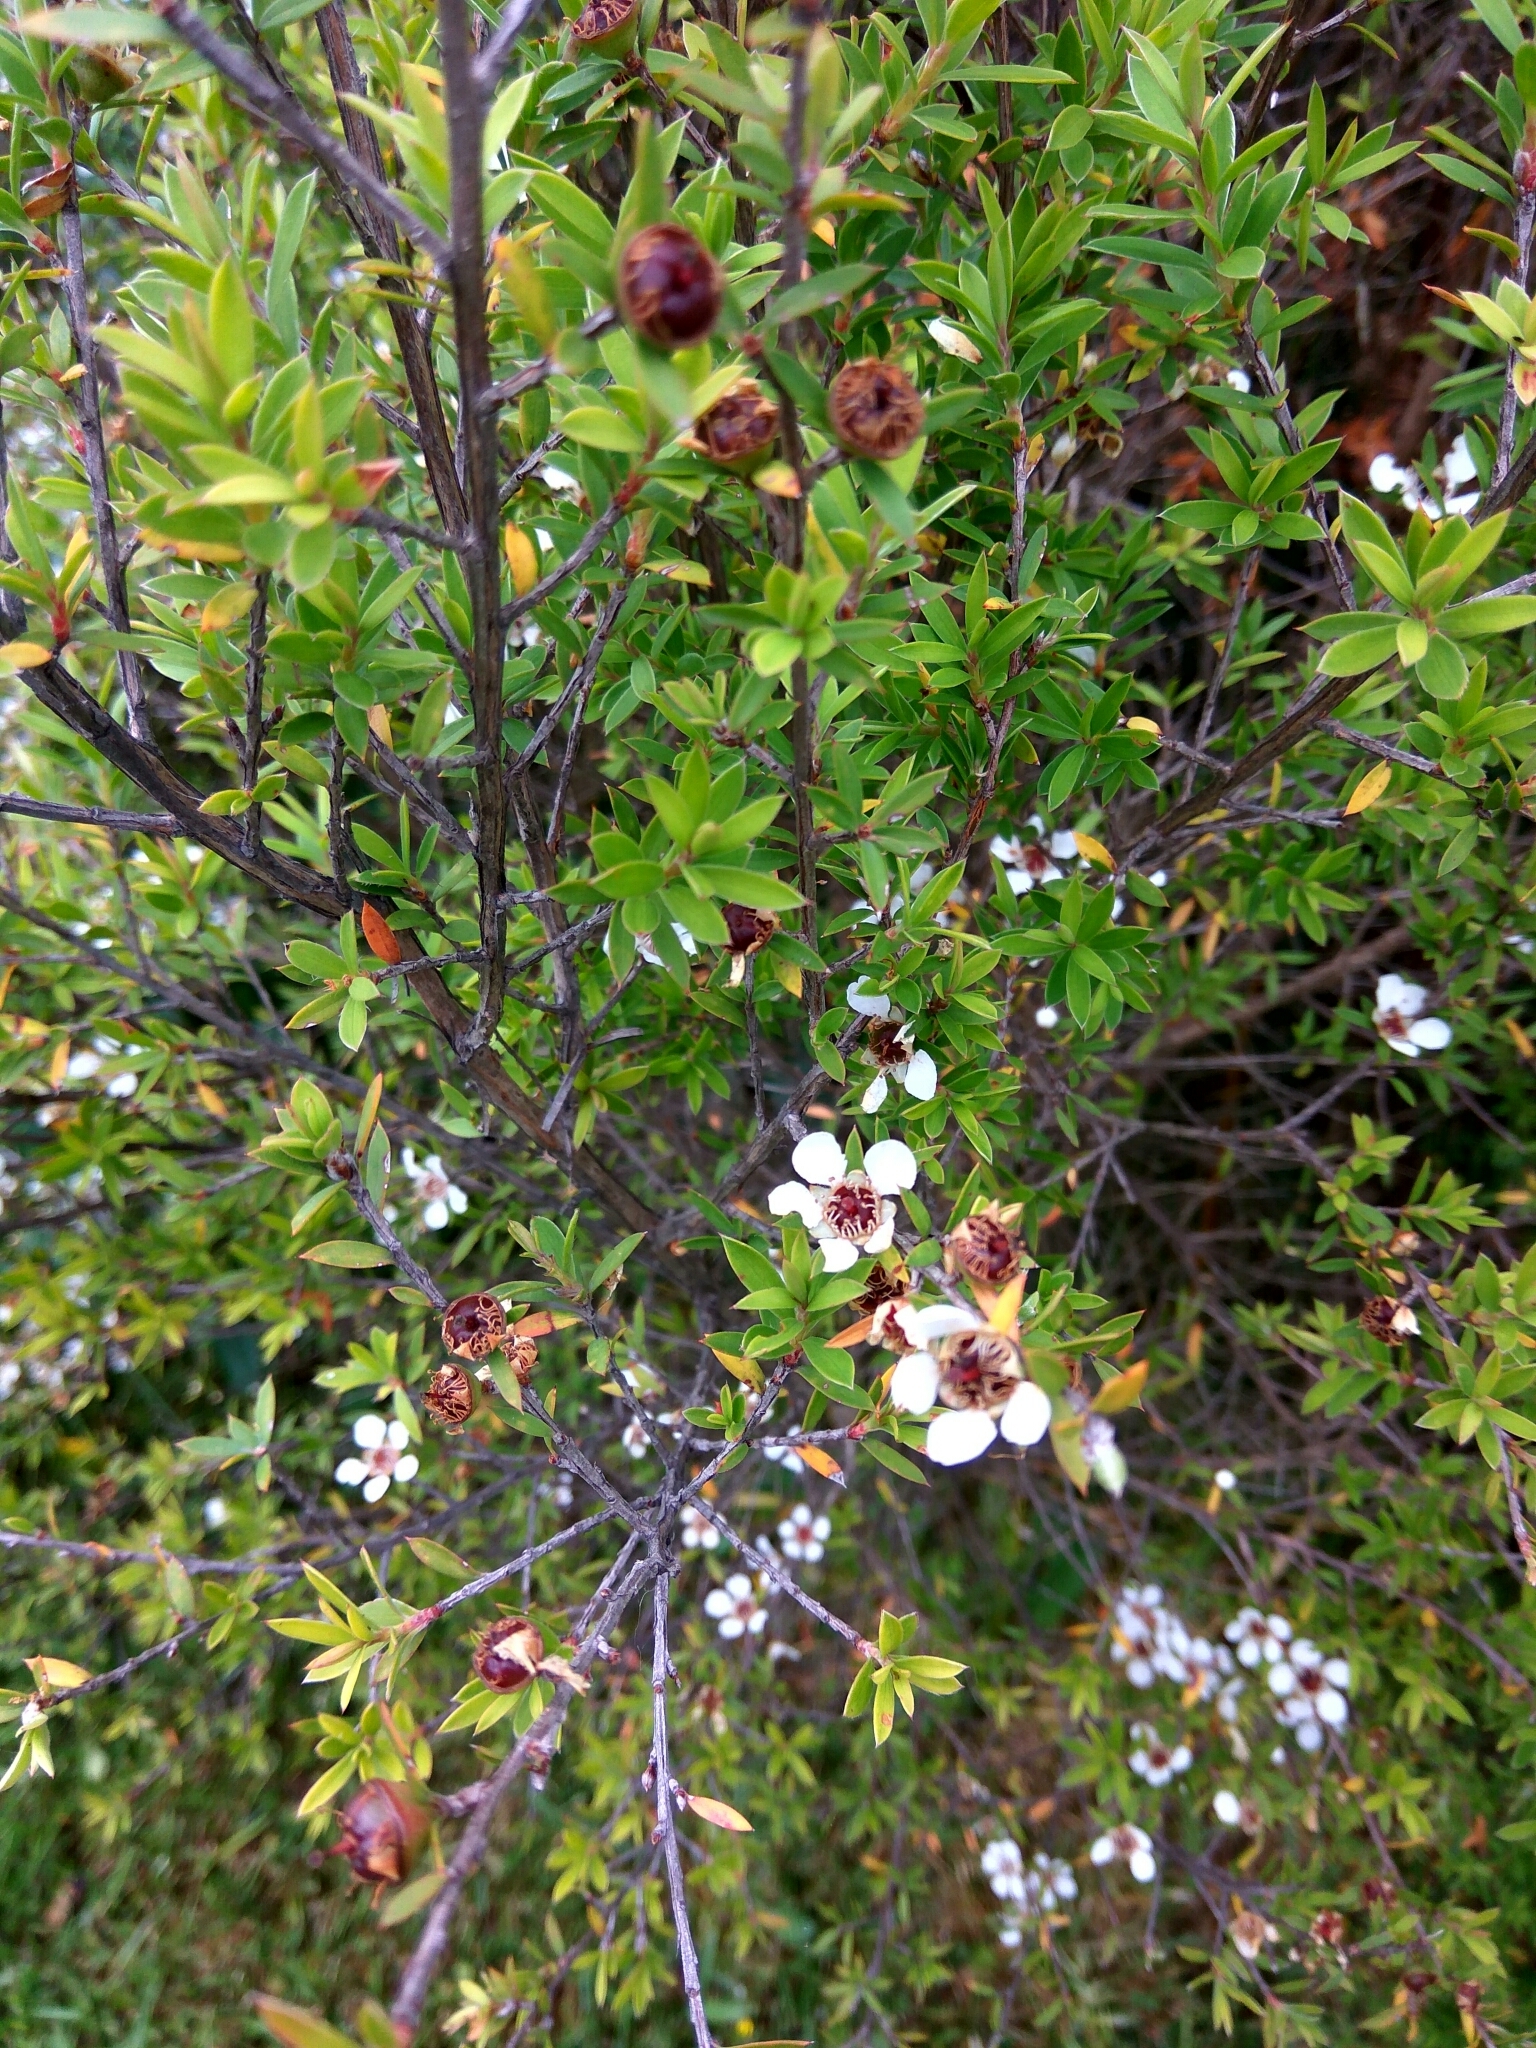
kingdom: Plantae
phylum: Tracheophyta
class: Magnoliopsida
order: Myrtales
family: Myrtaceae
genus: Leptospermum
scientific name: Leptospermum scoparium
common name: Broom tea-tree
